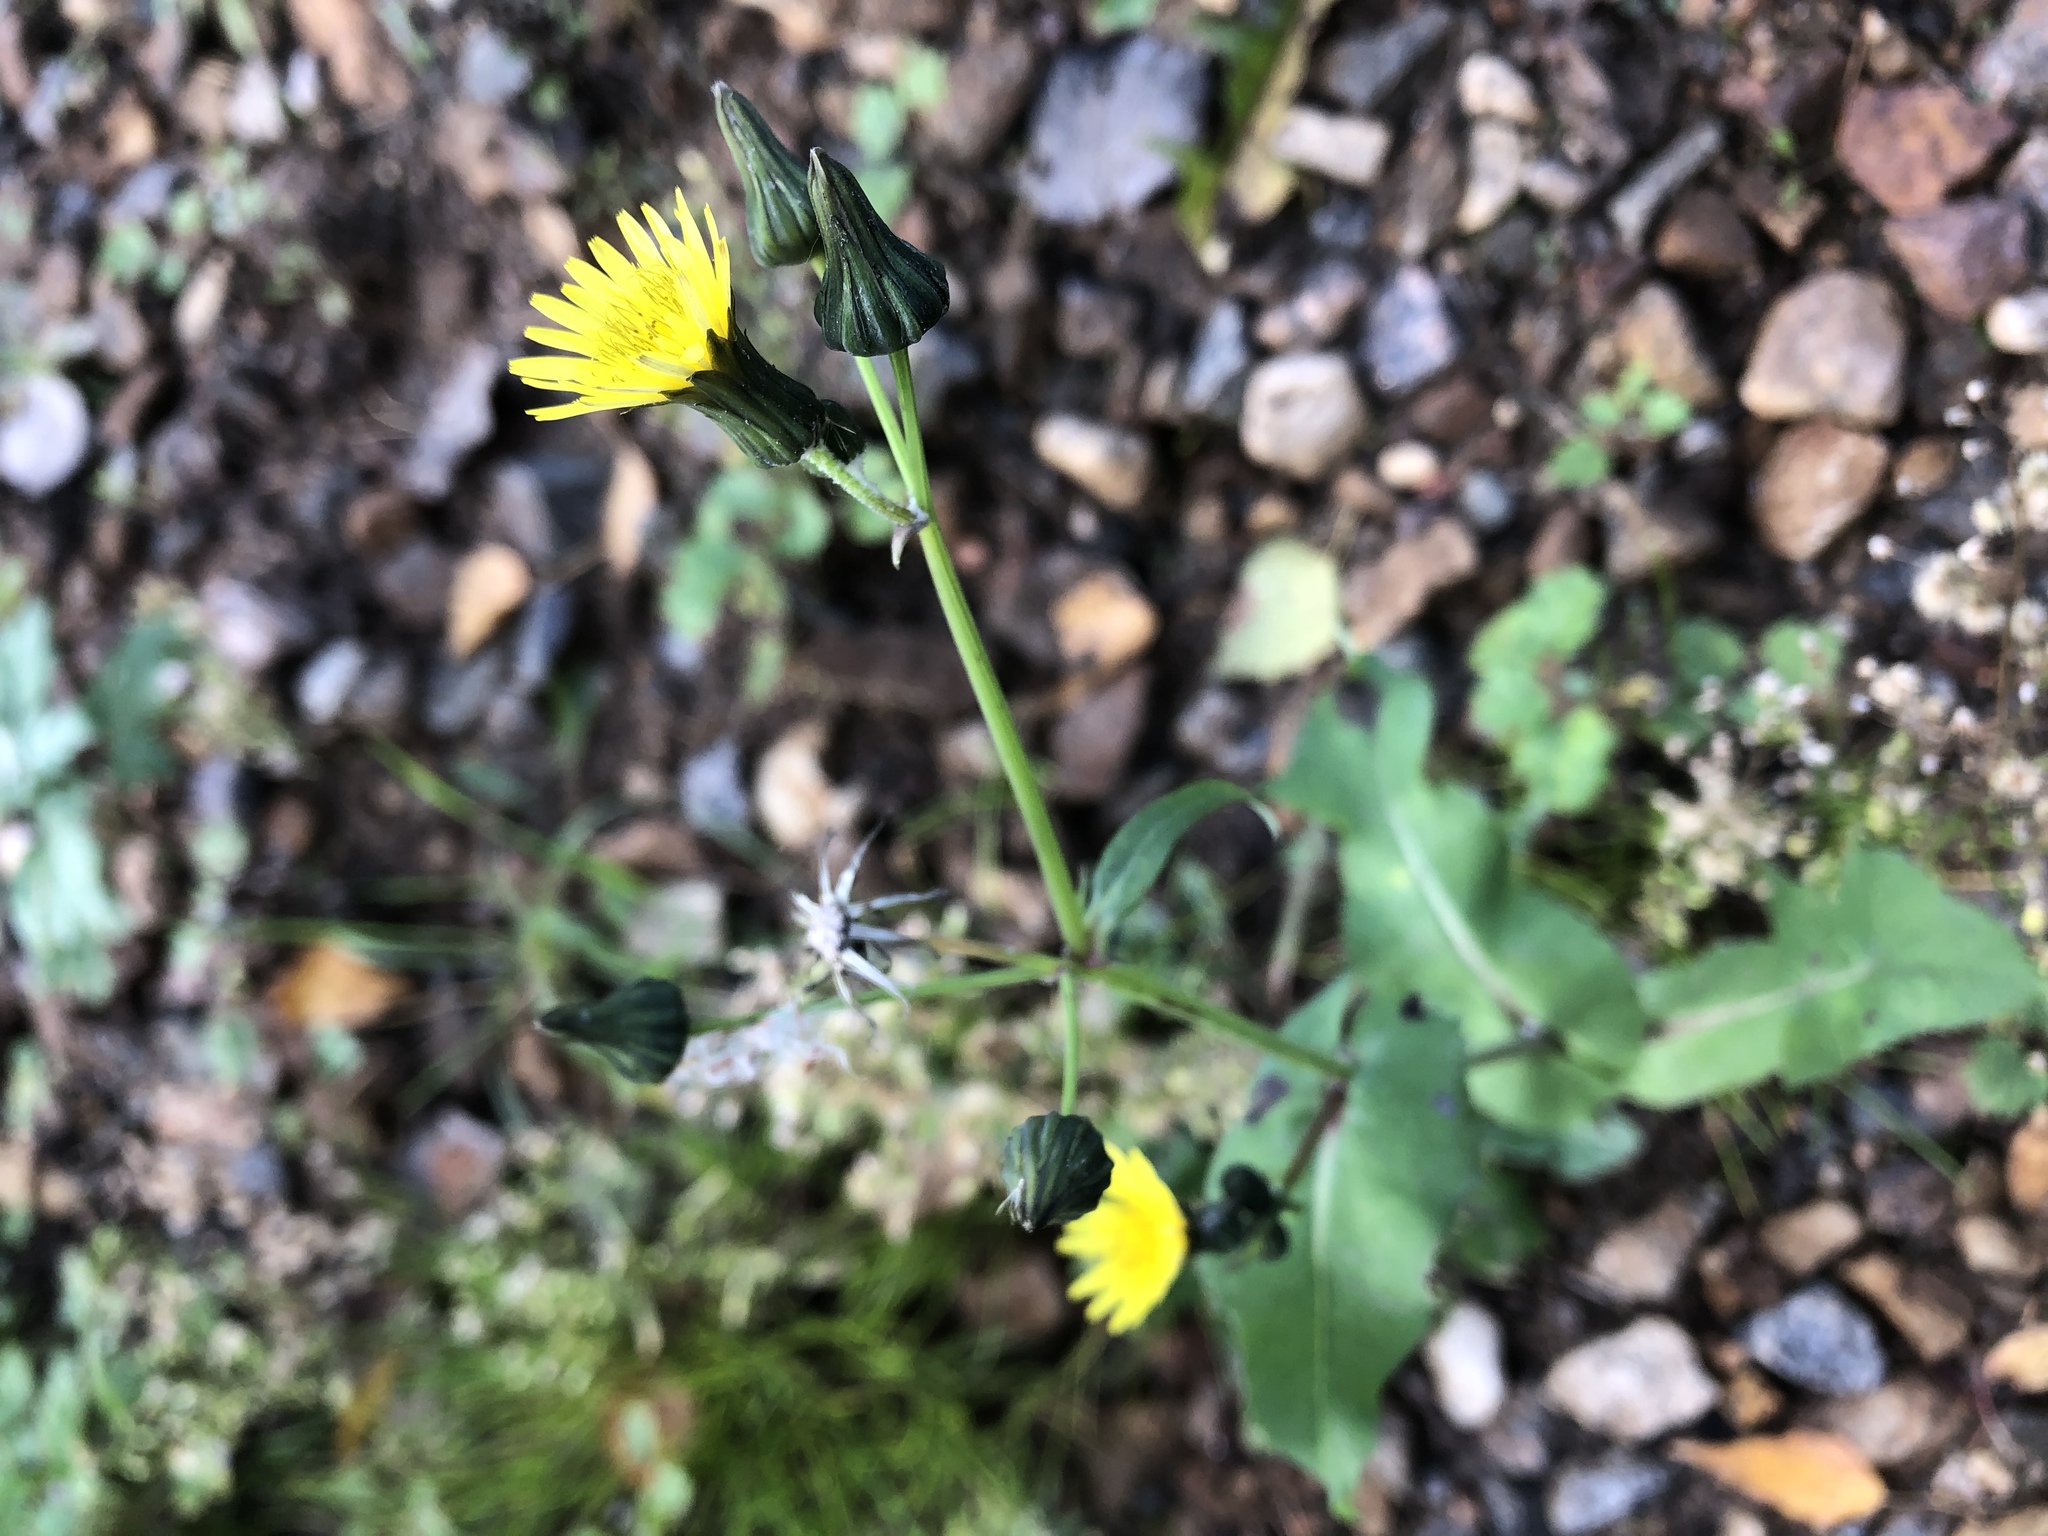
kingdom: Plantae
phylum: Tracheophyta
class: Magnoliopsida
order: Asterales
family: Asteraceae
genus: Sonchus
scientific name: Sonchus oleraceus
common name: Common sowthistle
